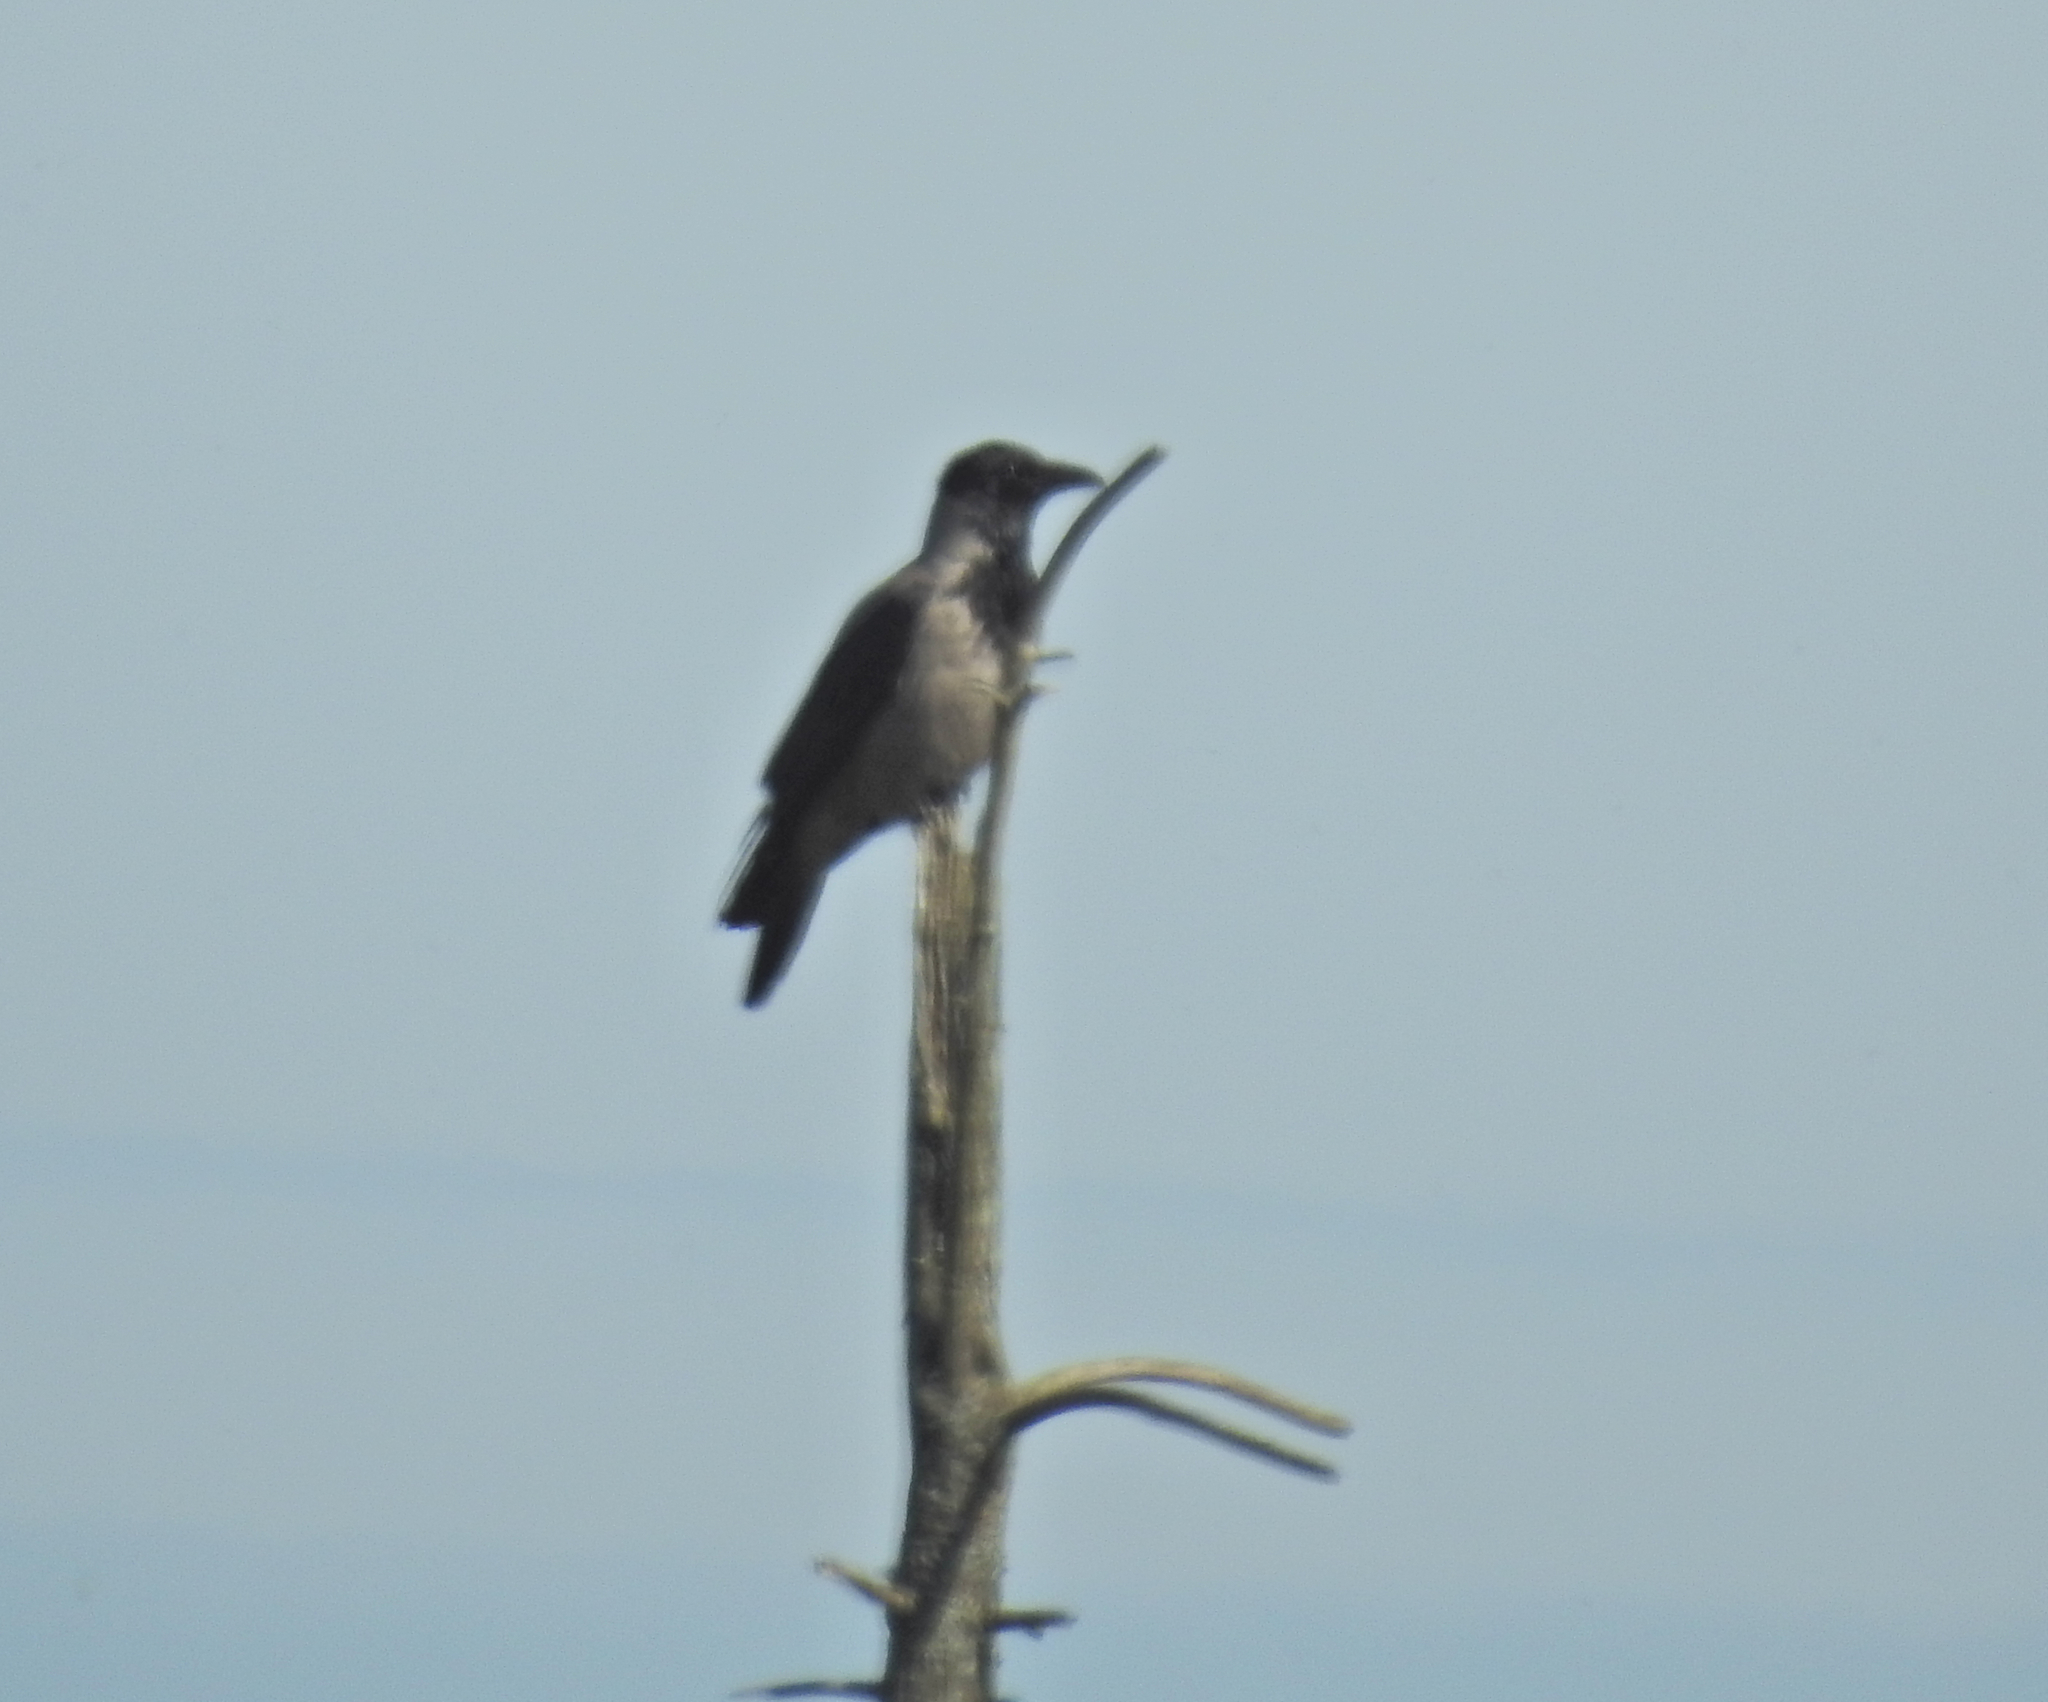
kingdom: Animalia
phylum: Chordata
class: Aves
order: Passeriformes
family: Corvidae
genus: Corvus
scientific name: Corvus cornix
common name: Hooded crow
